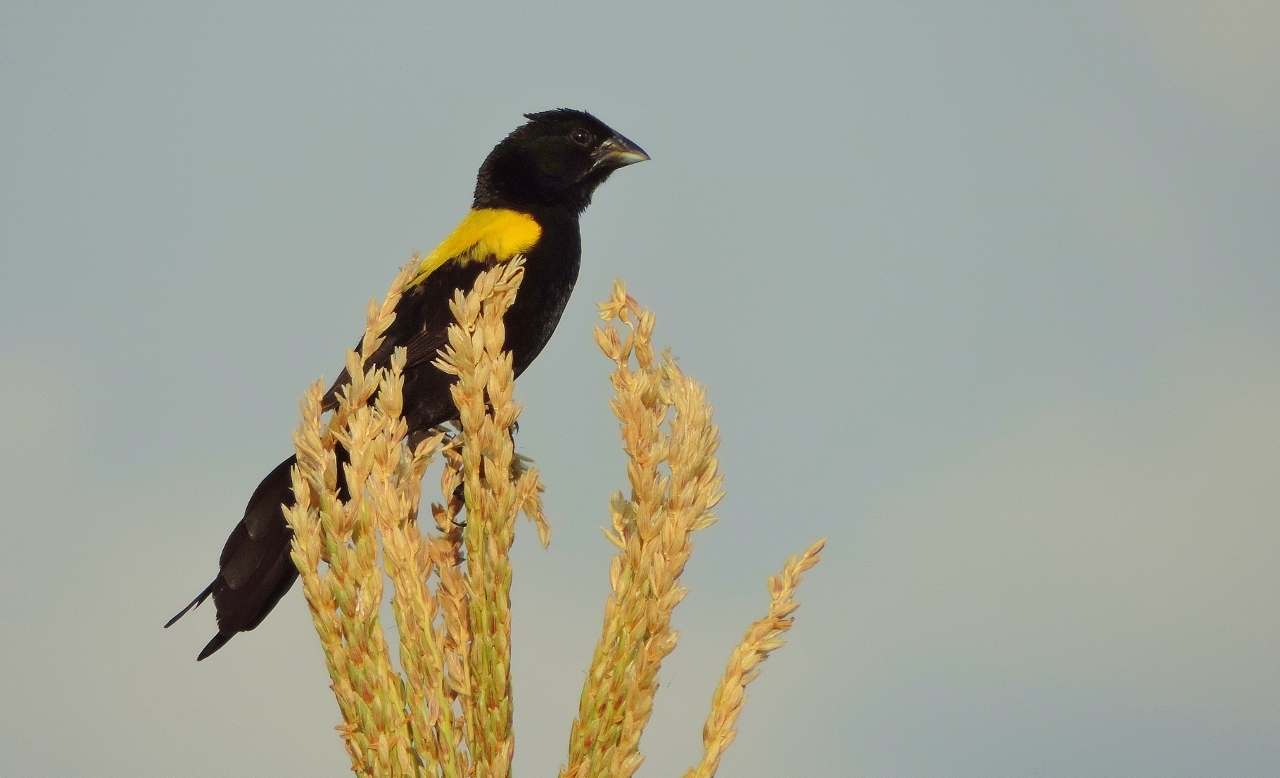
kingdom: Animalia
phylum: Chordata
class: Aves
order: Passeriformes
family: Ploceidae
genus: Euplectes
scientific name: Euplectes macroura
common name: Yellow-mantled widowbird
